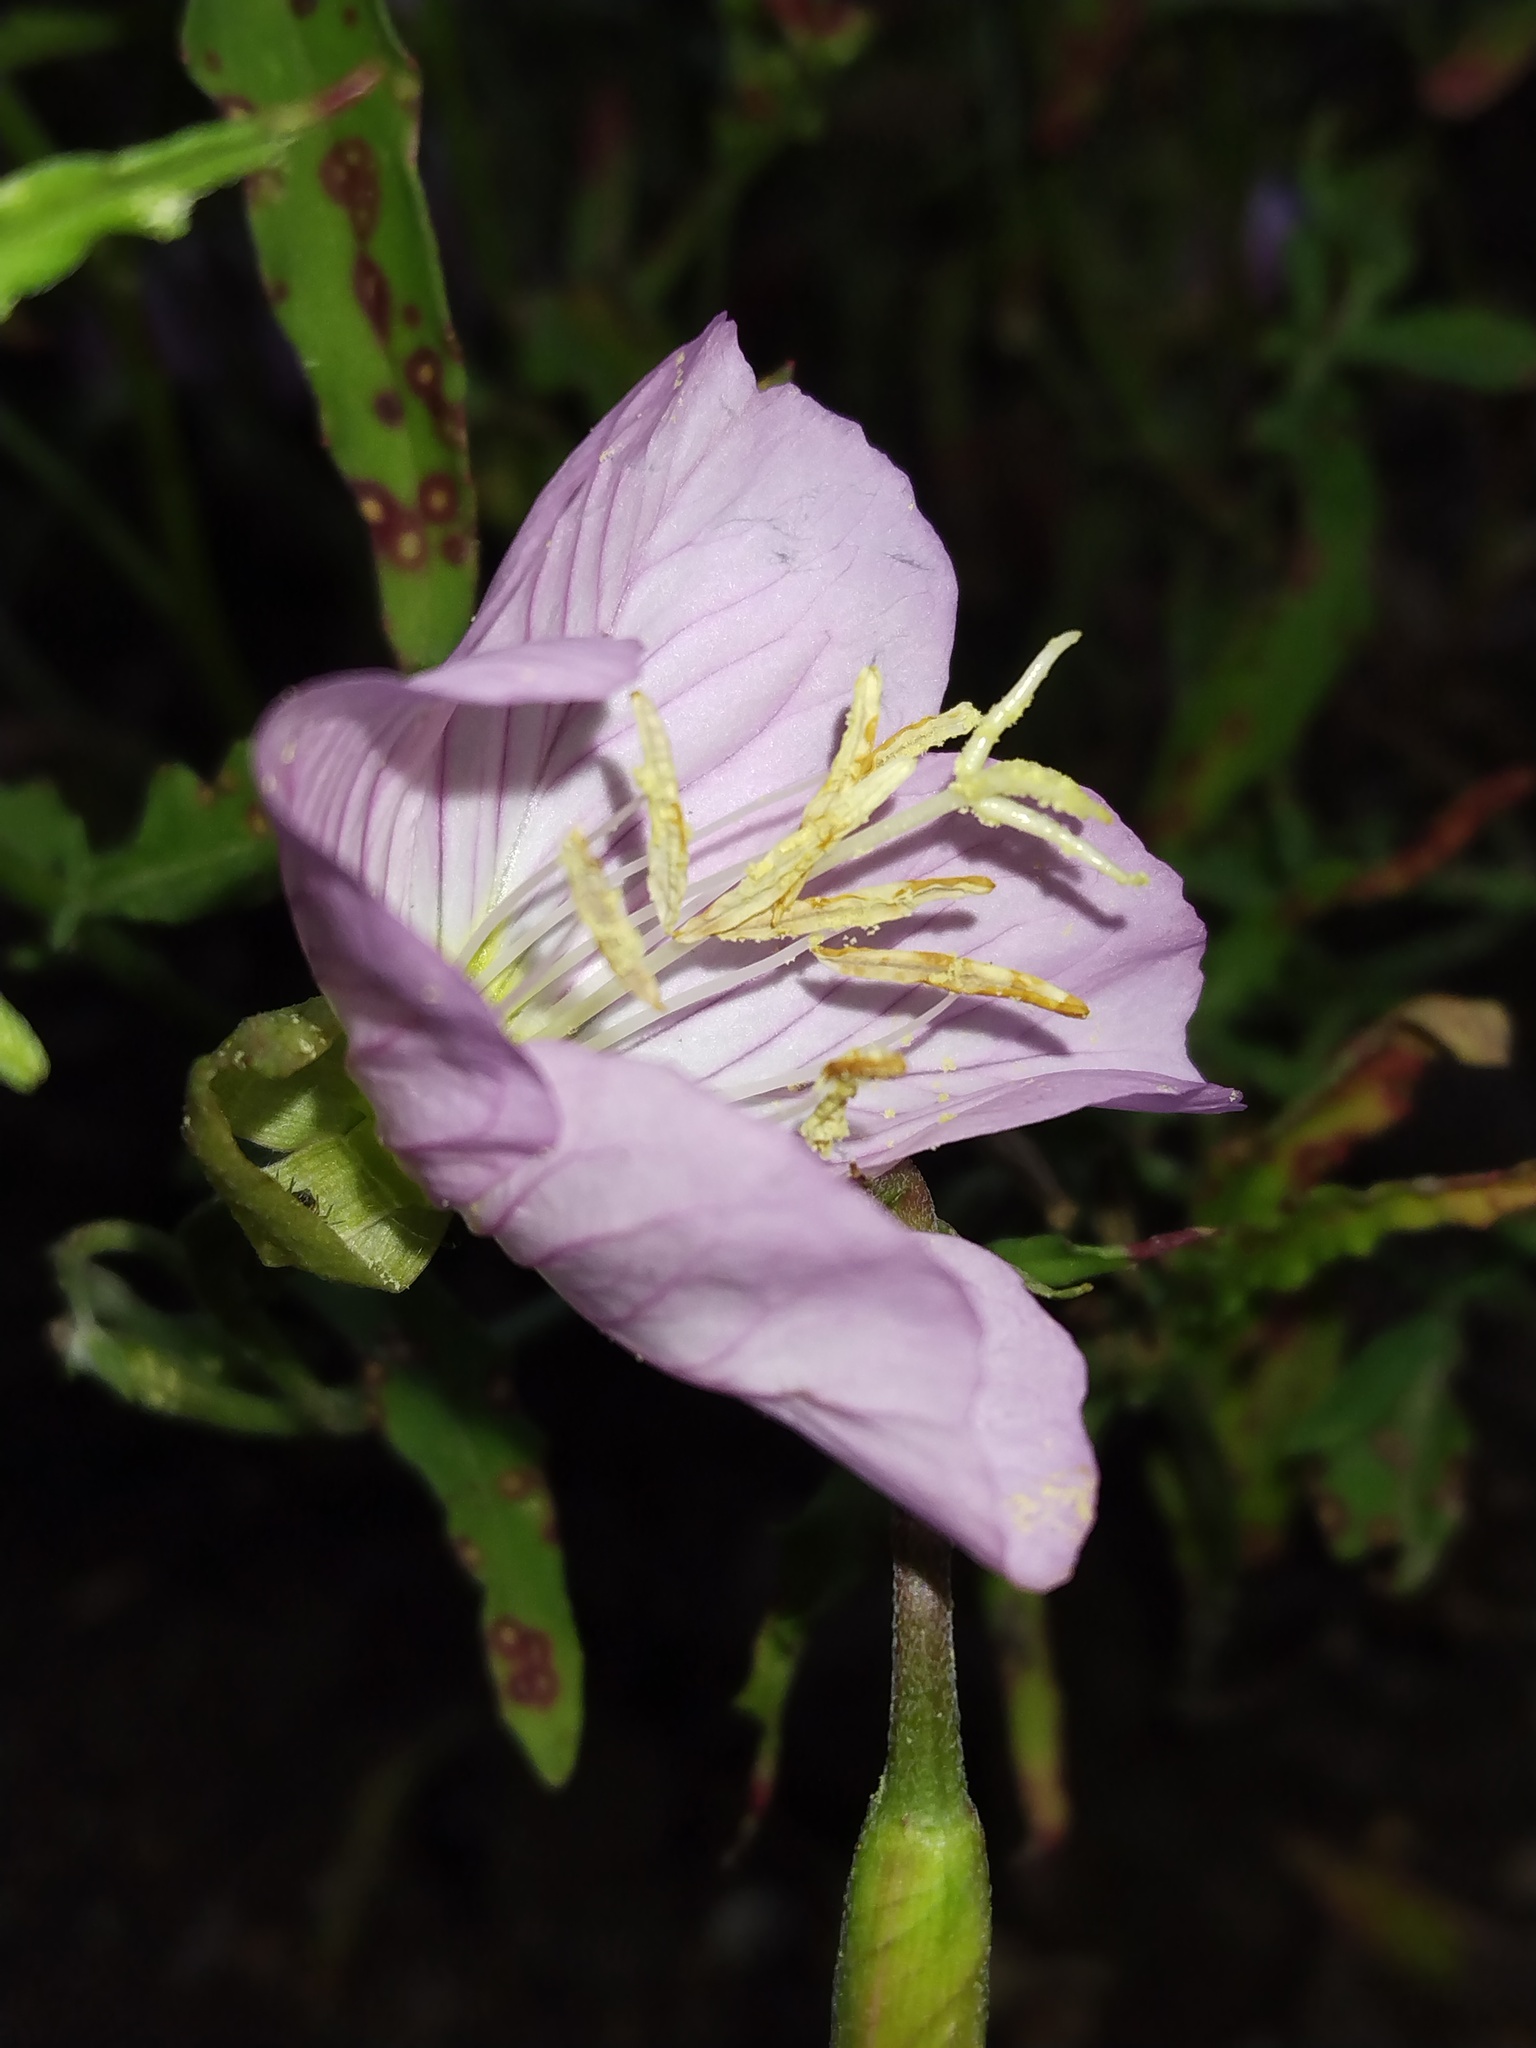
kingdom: Plantae
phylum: Tracheophyta
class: Magnoliopsida
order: Myrtales
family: Onagraceae
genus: Oenothera
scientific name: Oenothera speciosa
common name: White evening-primrose
